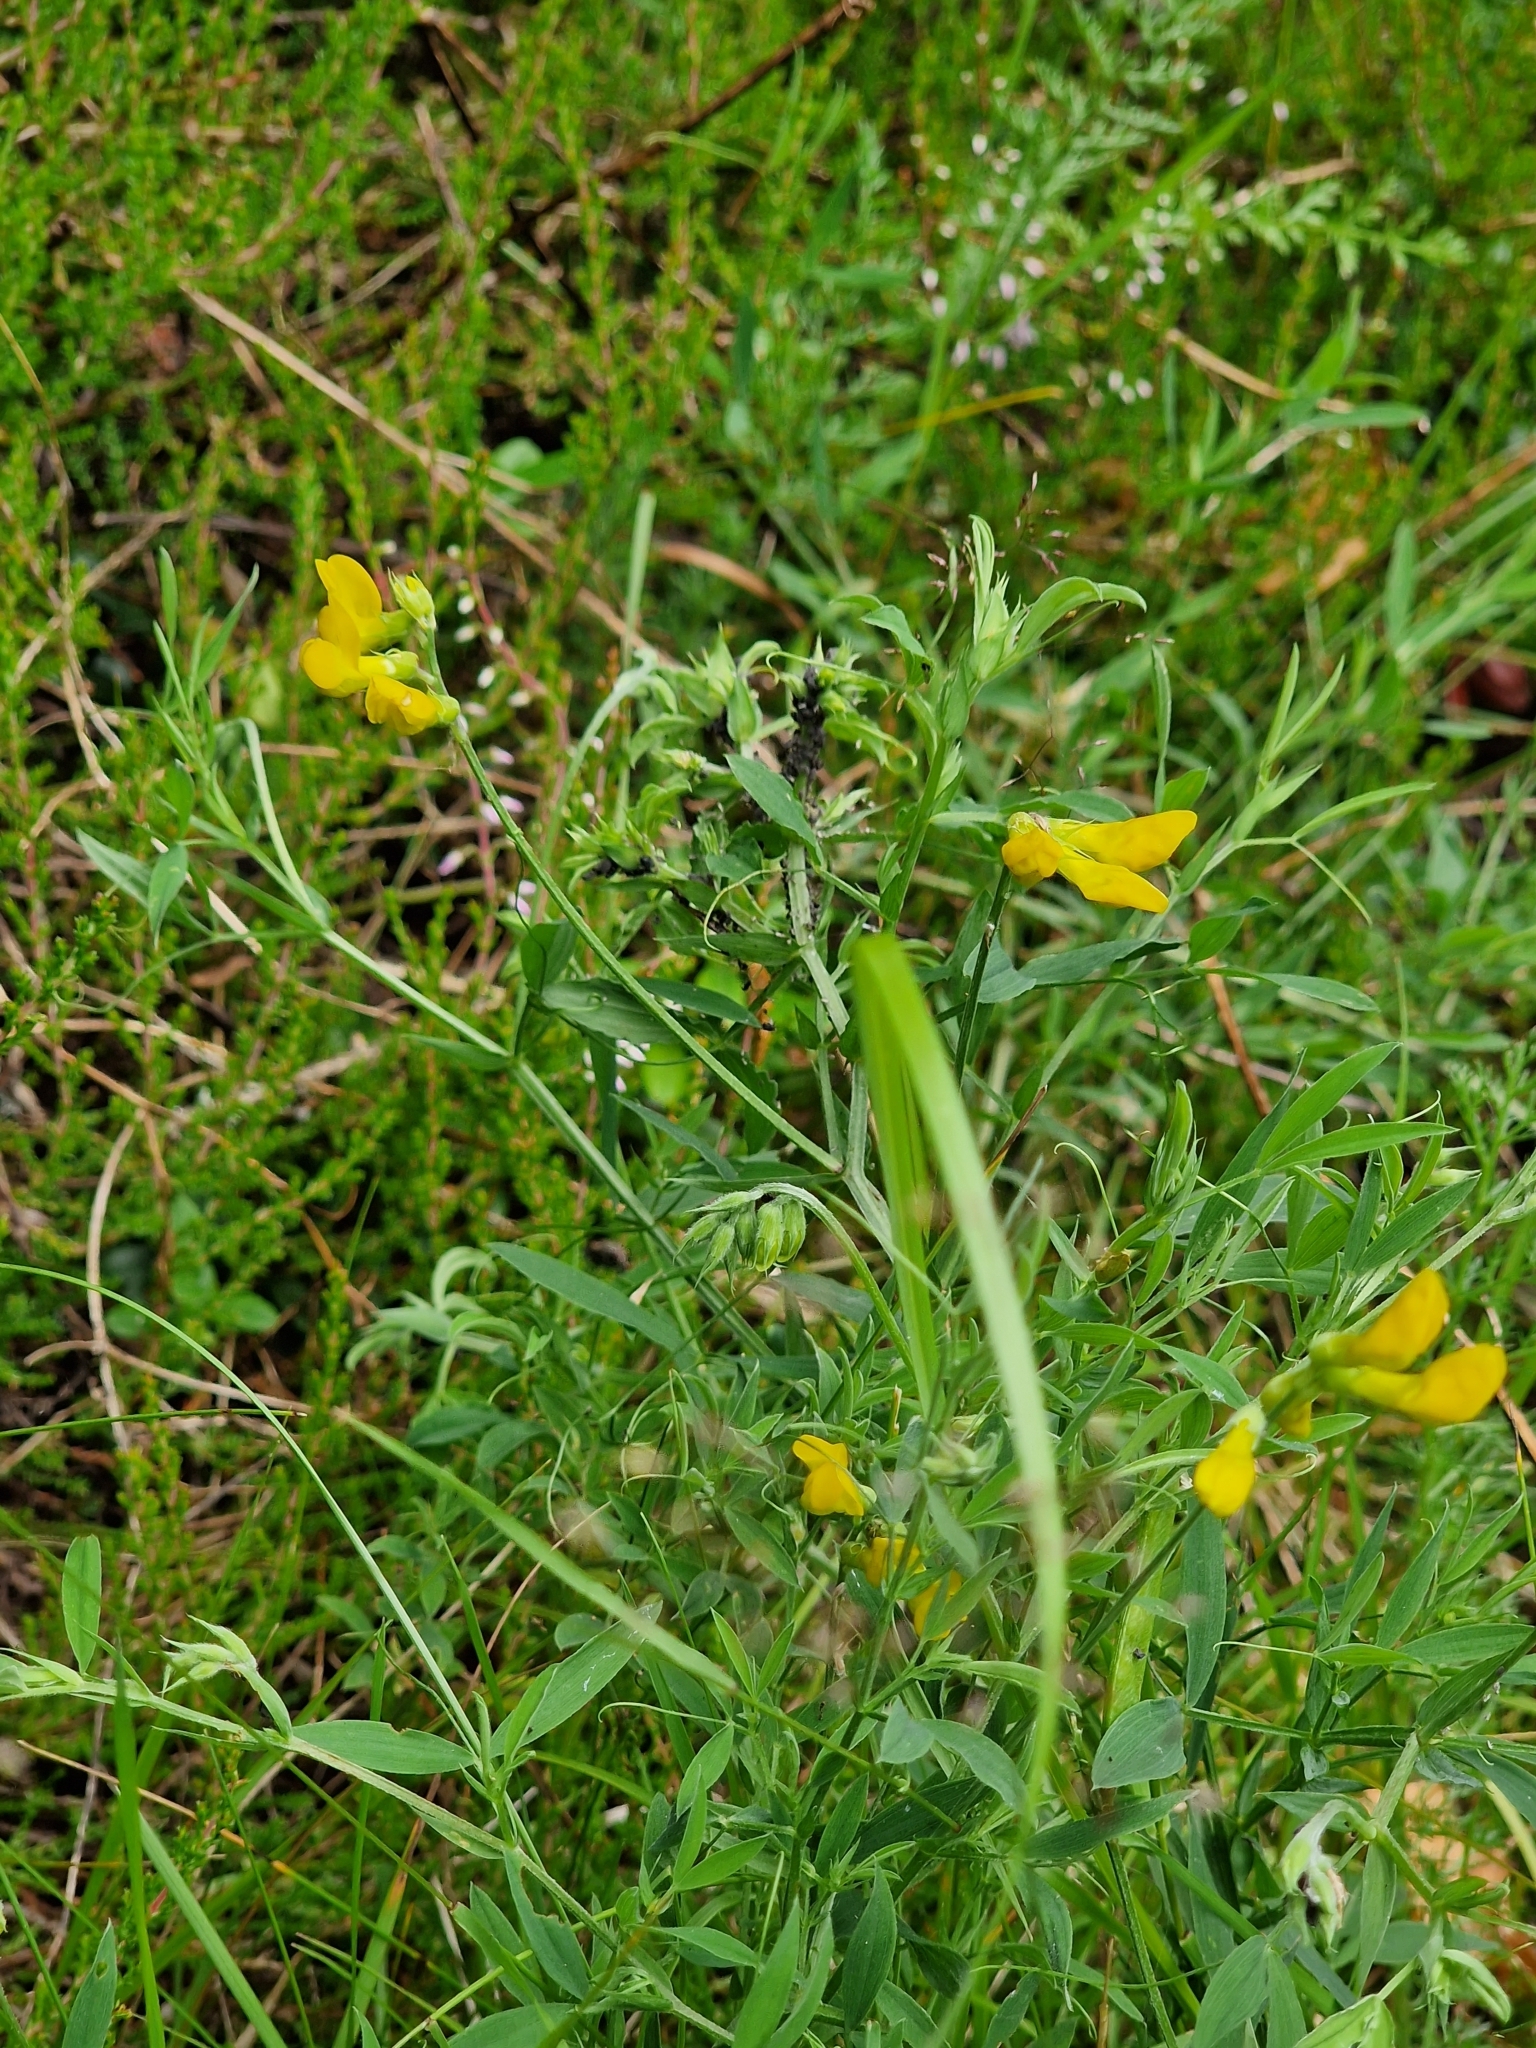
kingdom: Plantae
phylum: Tracheophyta
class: Magnoliopsida
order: Fabales
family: Fabaceae
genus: Lathyrus
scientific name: Lathyrus pratensis
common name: Meadow vetchling
